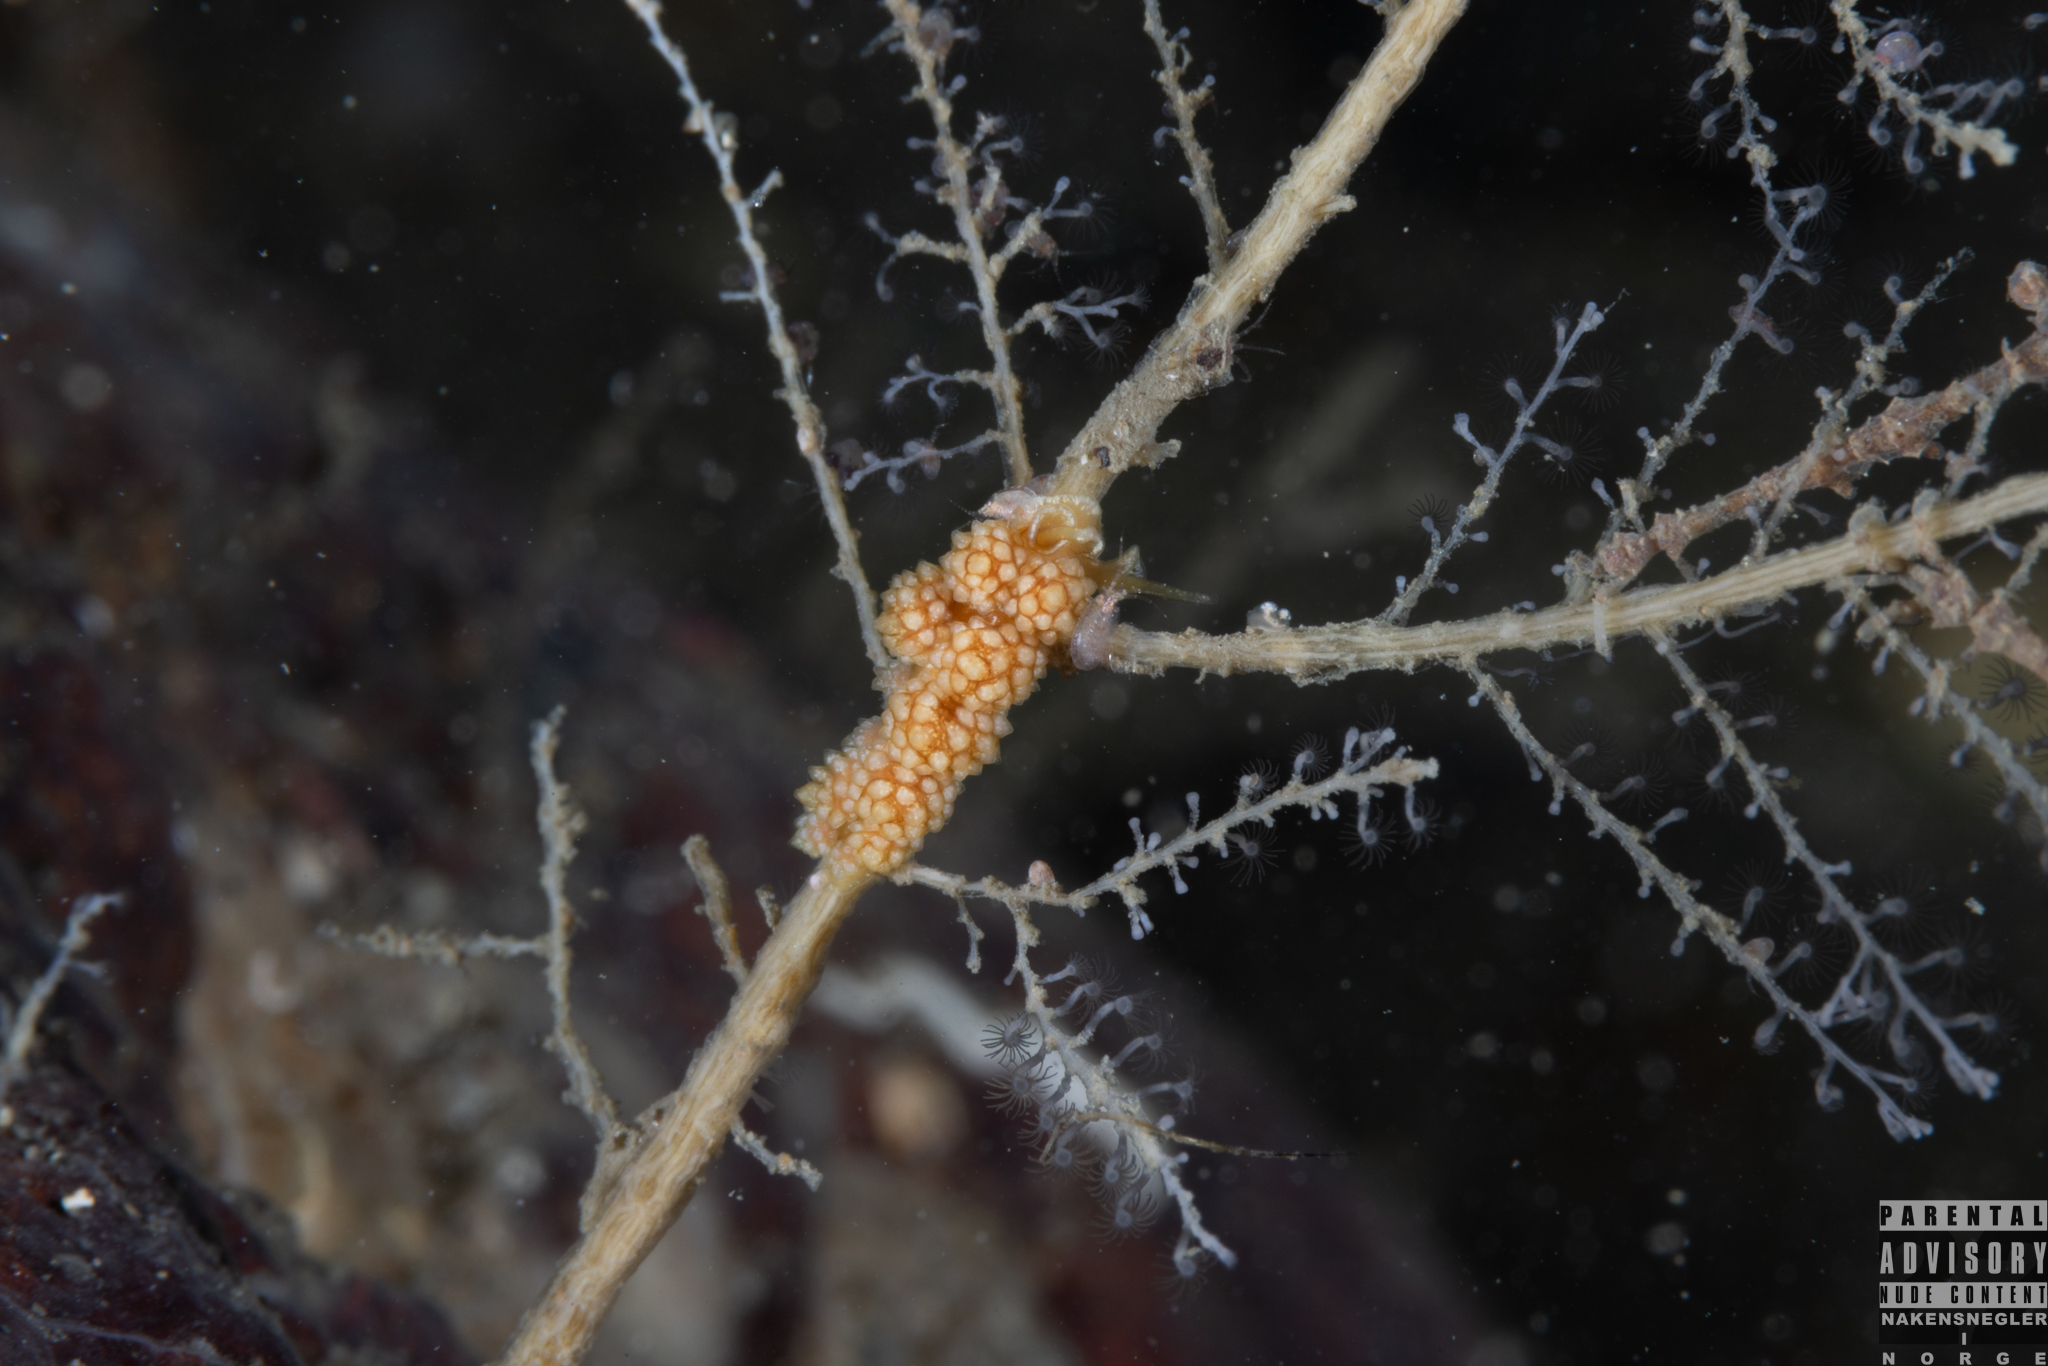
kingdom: Animalia
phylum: Mollusca
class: Gastropoda
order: Nudibranchia
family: Dotidae
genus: Doto
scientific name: Doto fragilis
